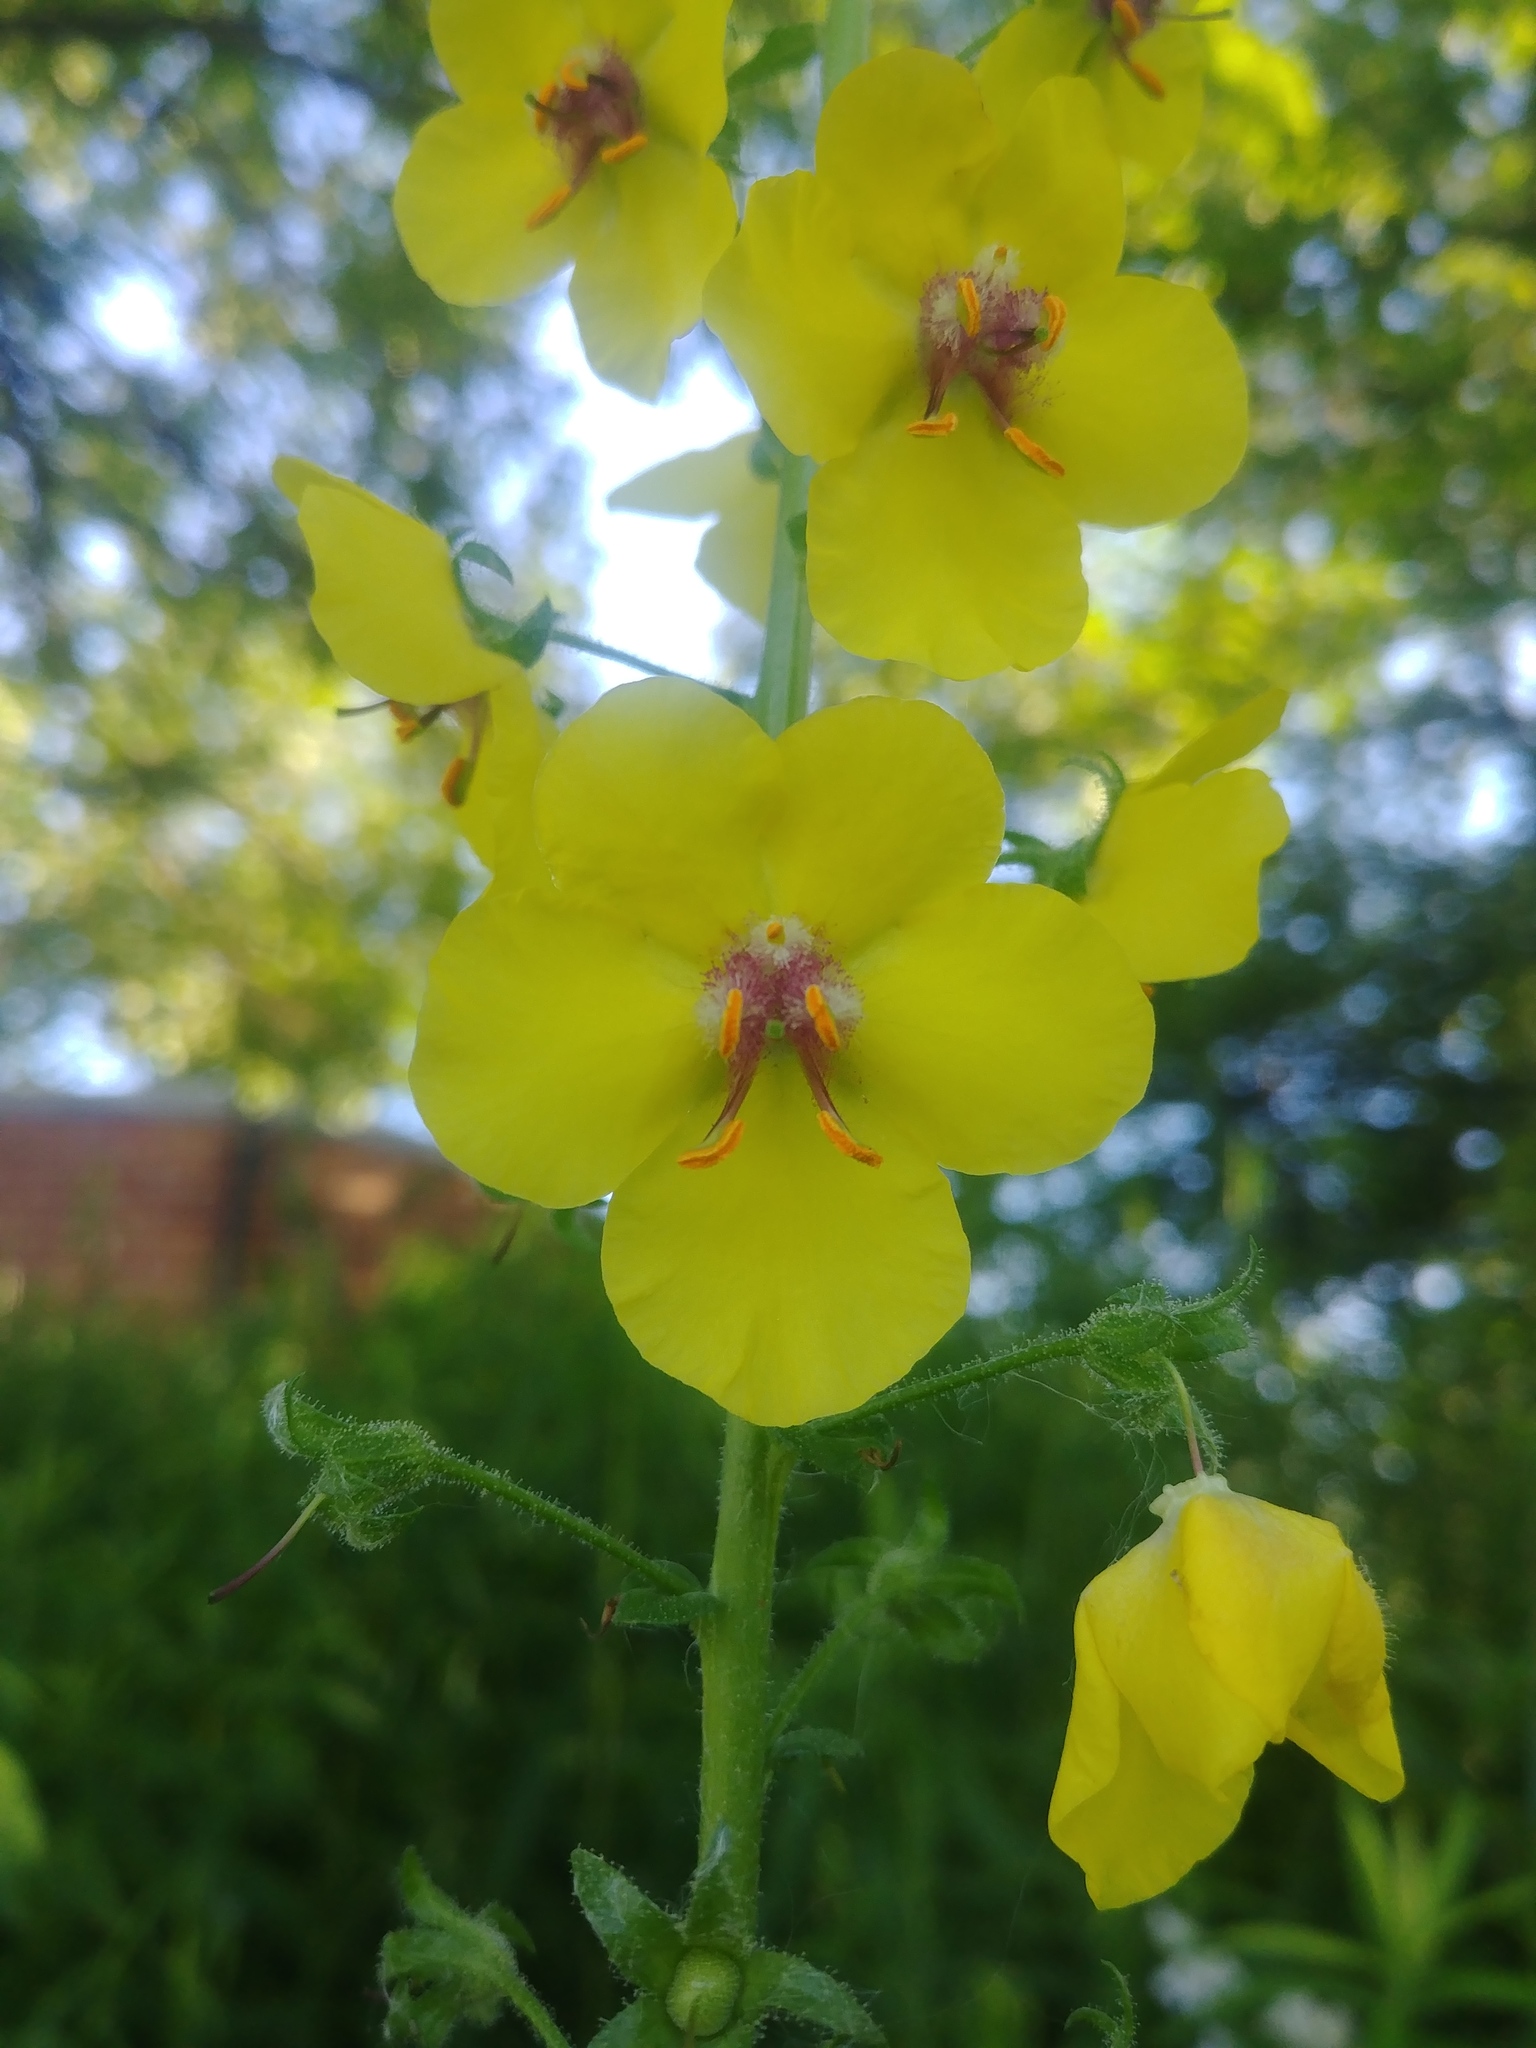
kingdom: Plantae
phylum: Tracheophyta
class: Magnoliopsida
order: Lamiales
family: Scrophulariaceae
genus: Verbascum
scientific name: Verbascum blattaria
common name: Moth mullein
